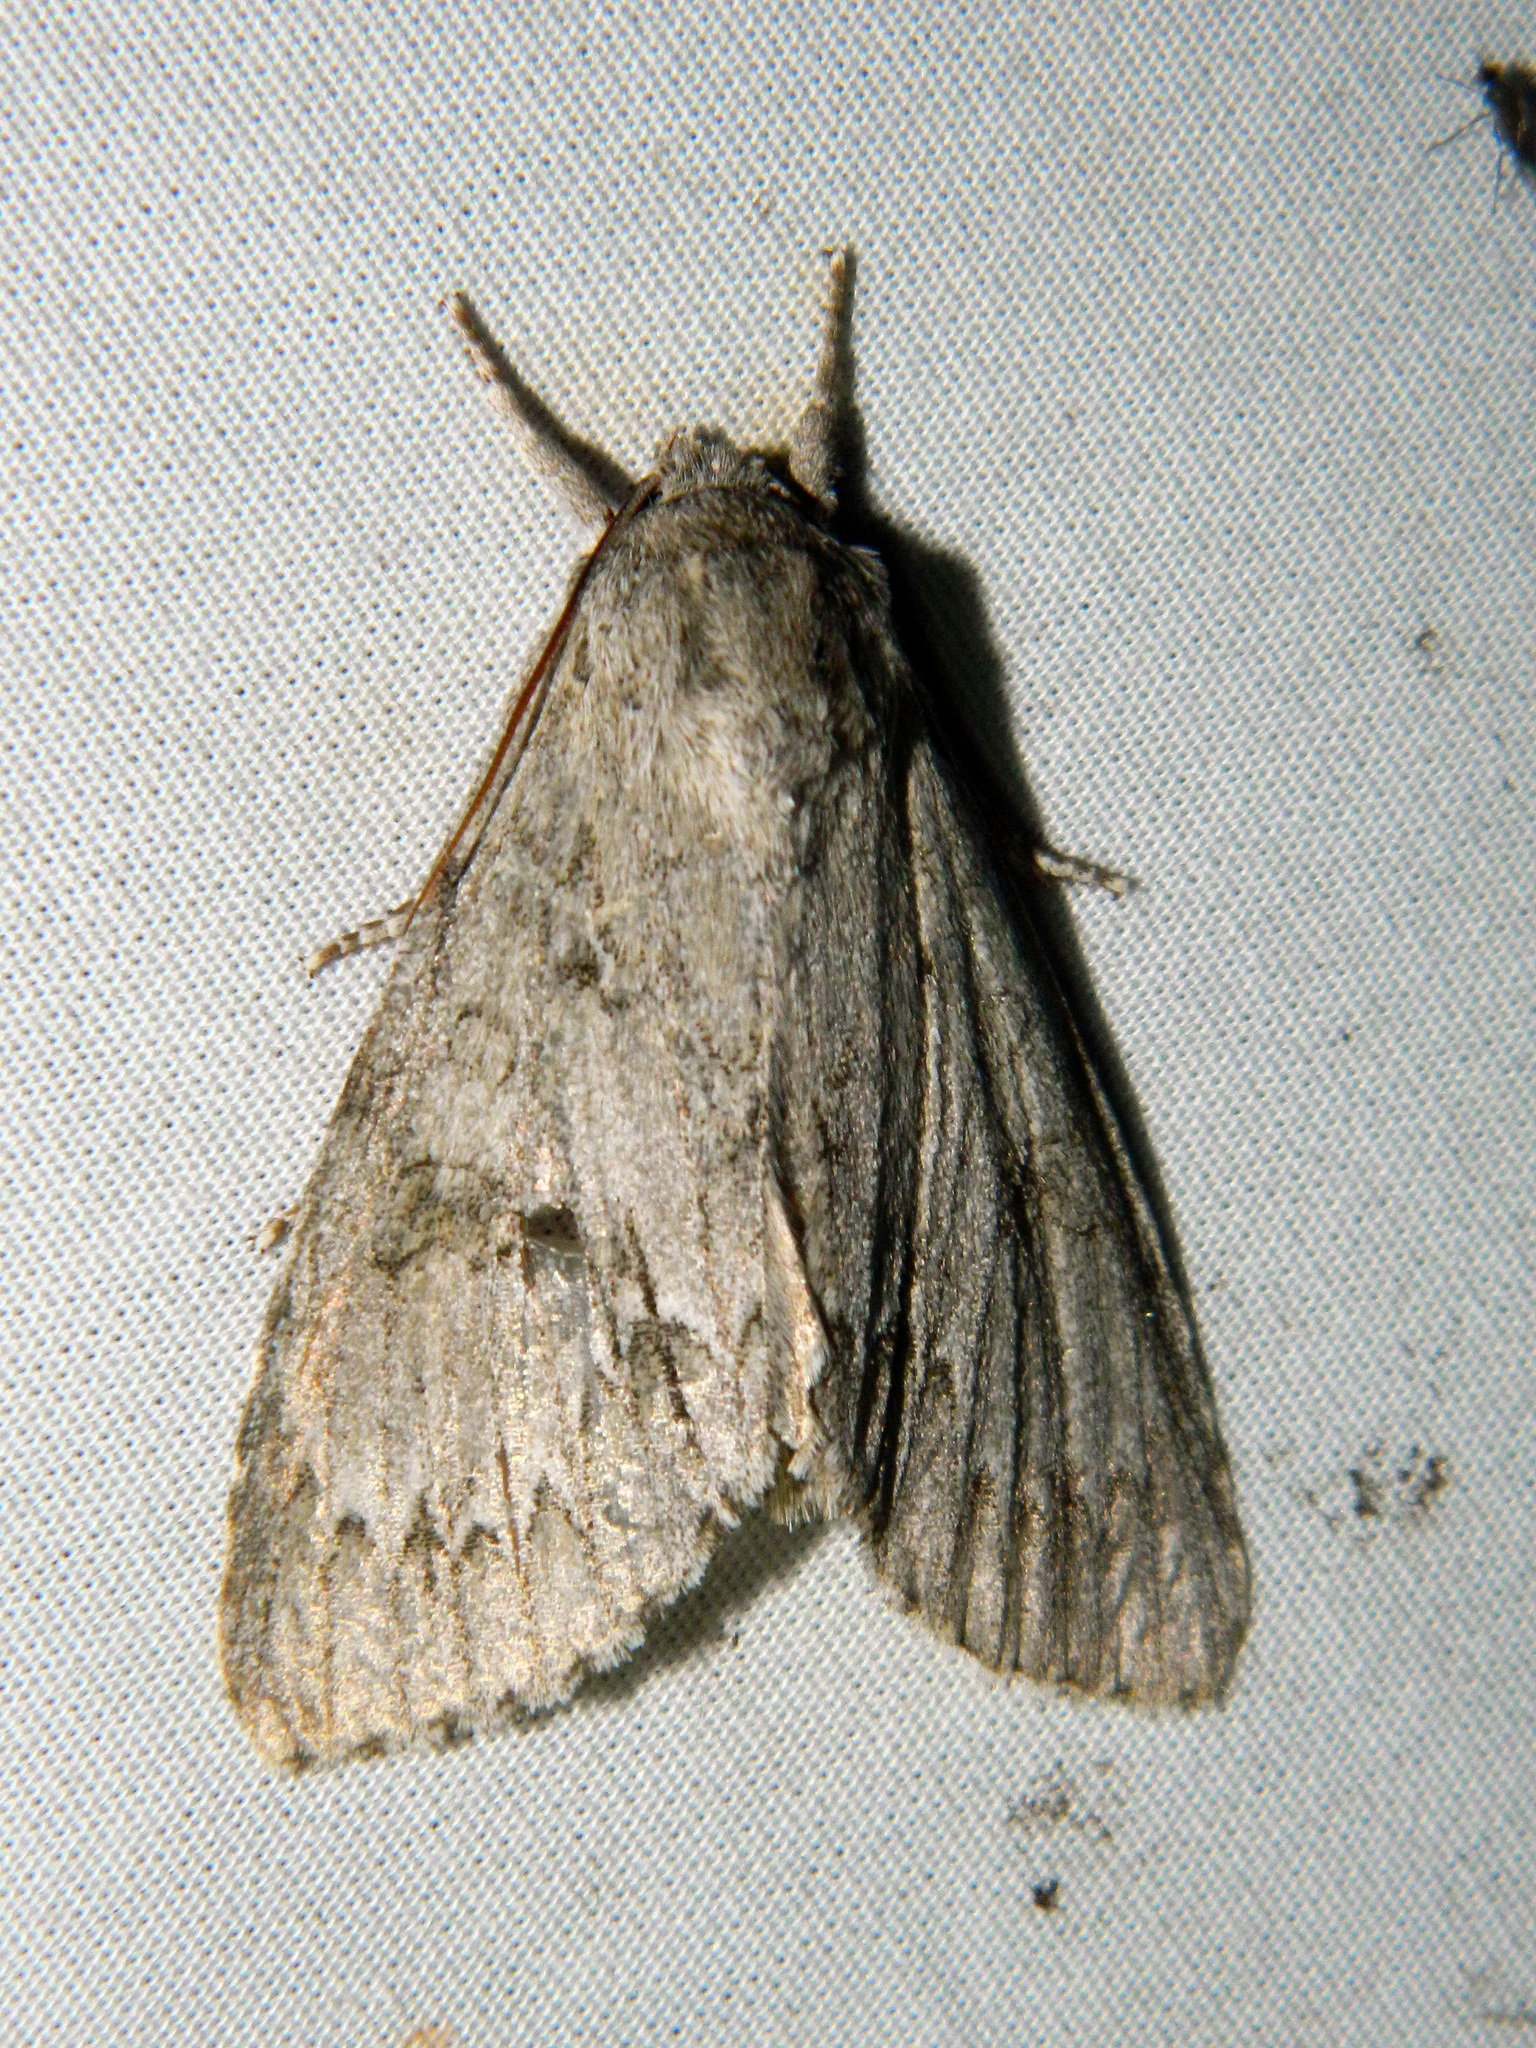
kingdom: Animalia
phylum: Arthropoda
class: Insecta
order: Lepidoptera
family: Noctuidae
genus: Acronicta
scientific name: Acronicta insita
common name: Large gray dagger
